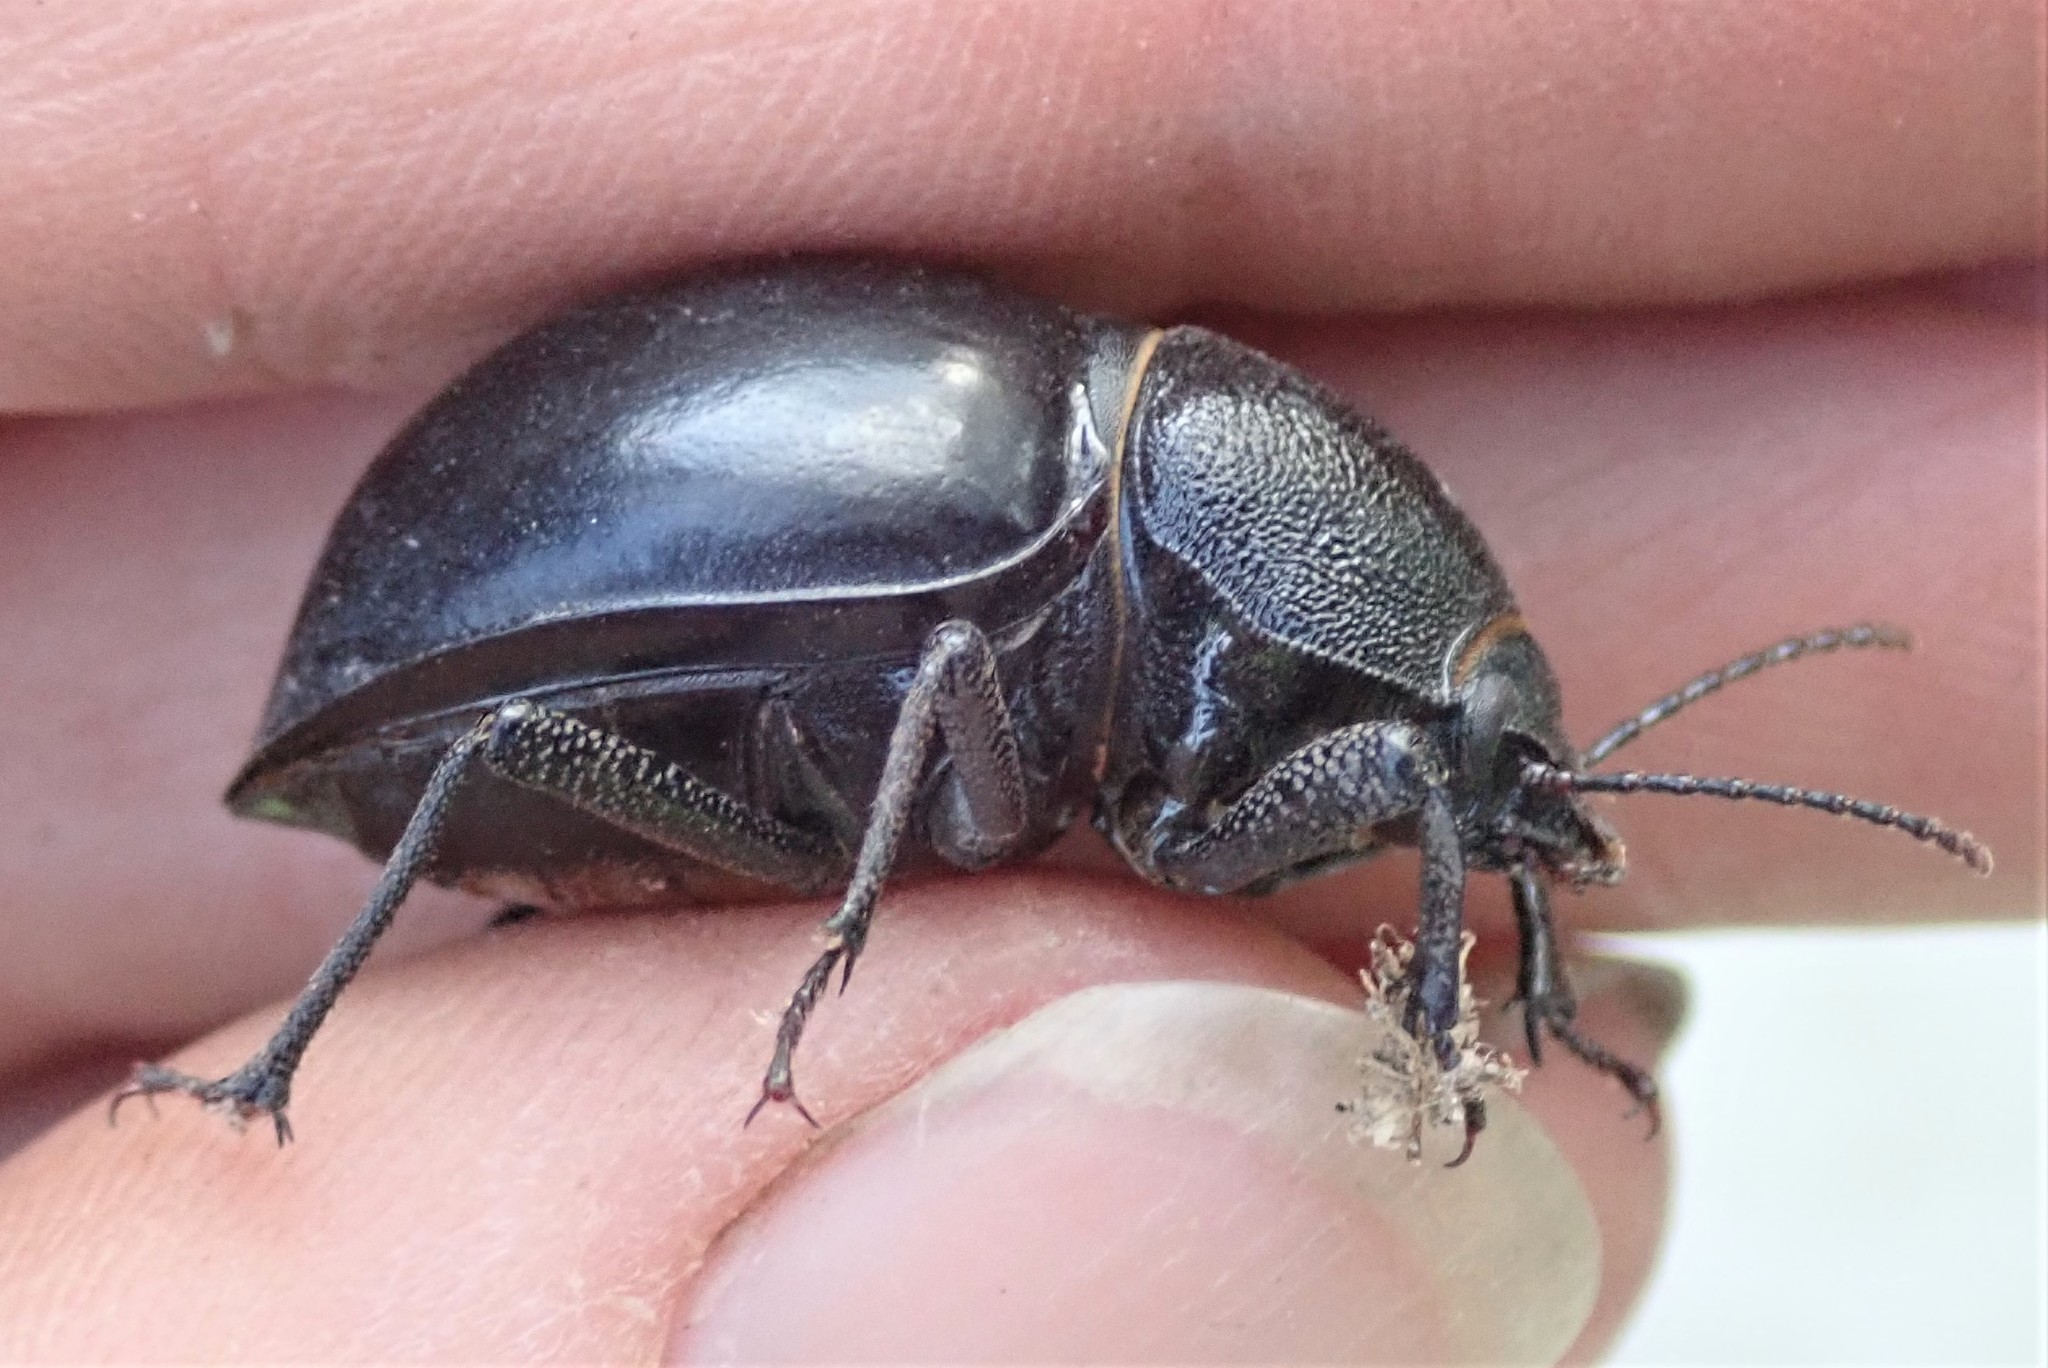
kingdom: Animalia
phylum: Arthropoda
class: Insecta
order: Coleoptera
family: Tenebrionidae
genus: Ocnodes
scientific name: Ocnodes virago
